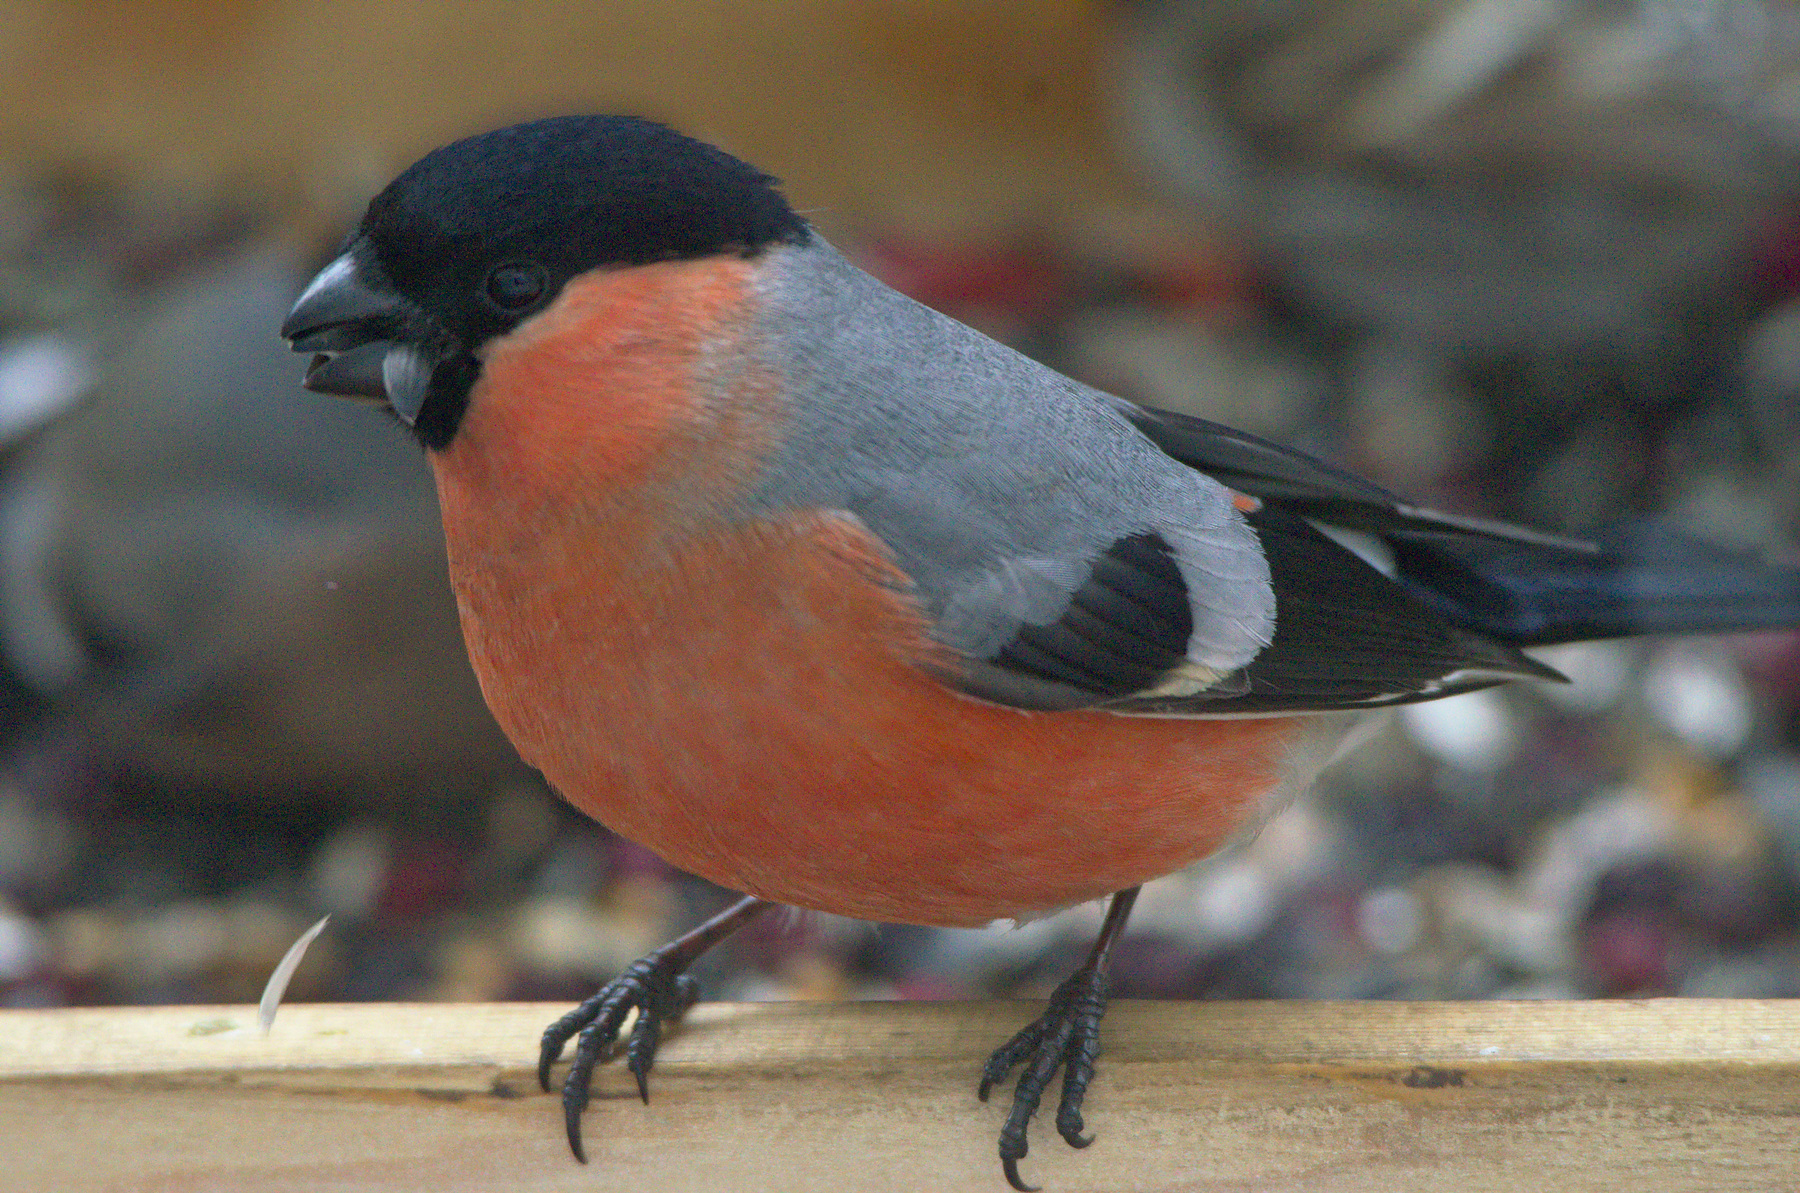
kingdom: Animalia
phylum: Chordata
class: Aves
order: Passeriformes
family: Fringillidae
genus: Pyrrhula
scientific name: Pyrrhula pyrrhula
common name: Eurasian bullfinch
